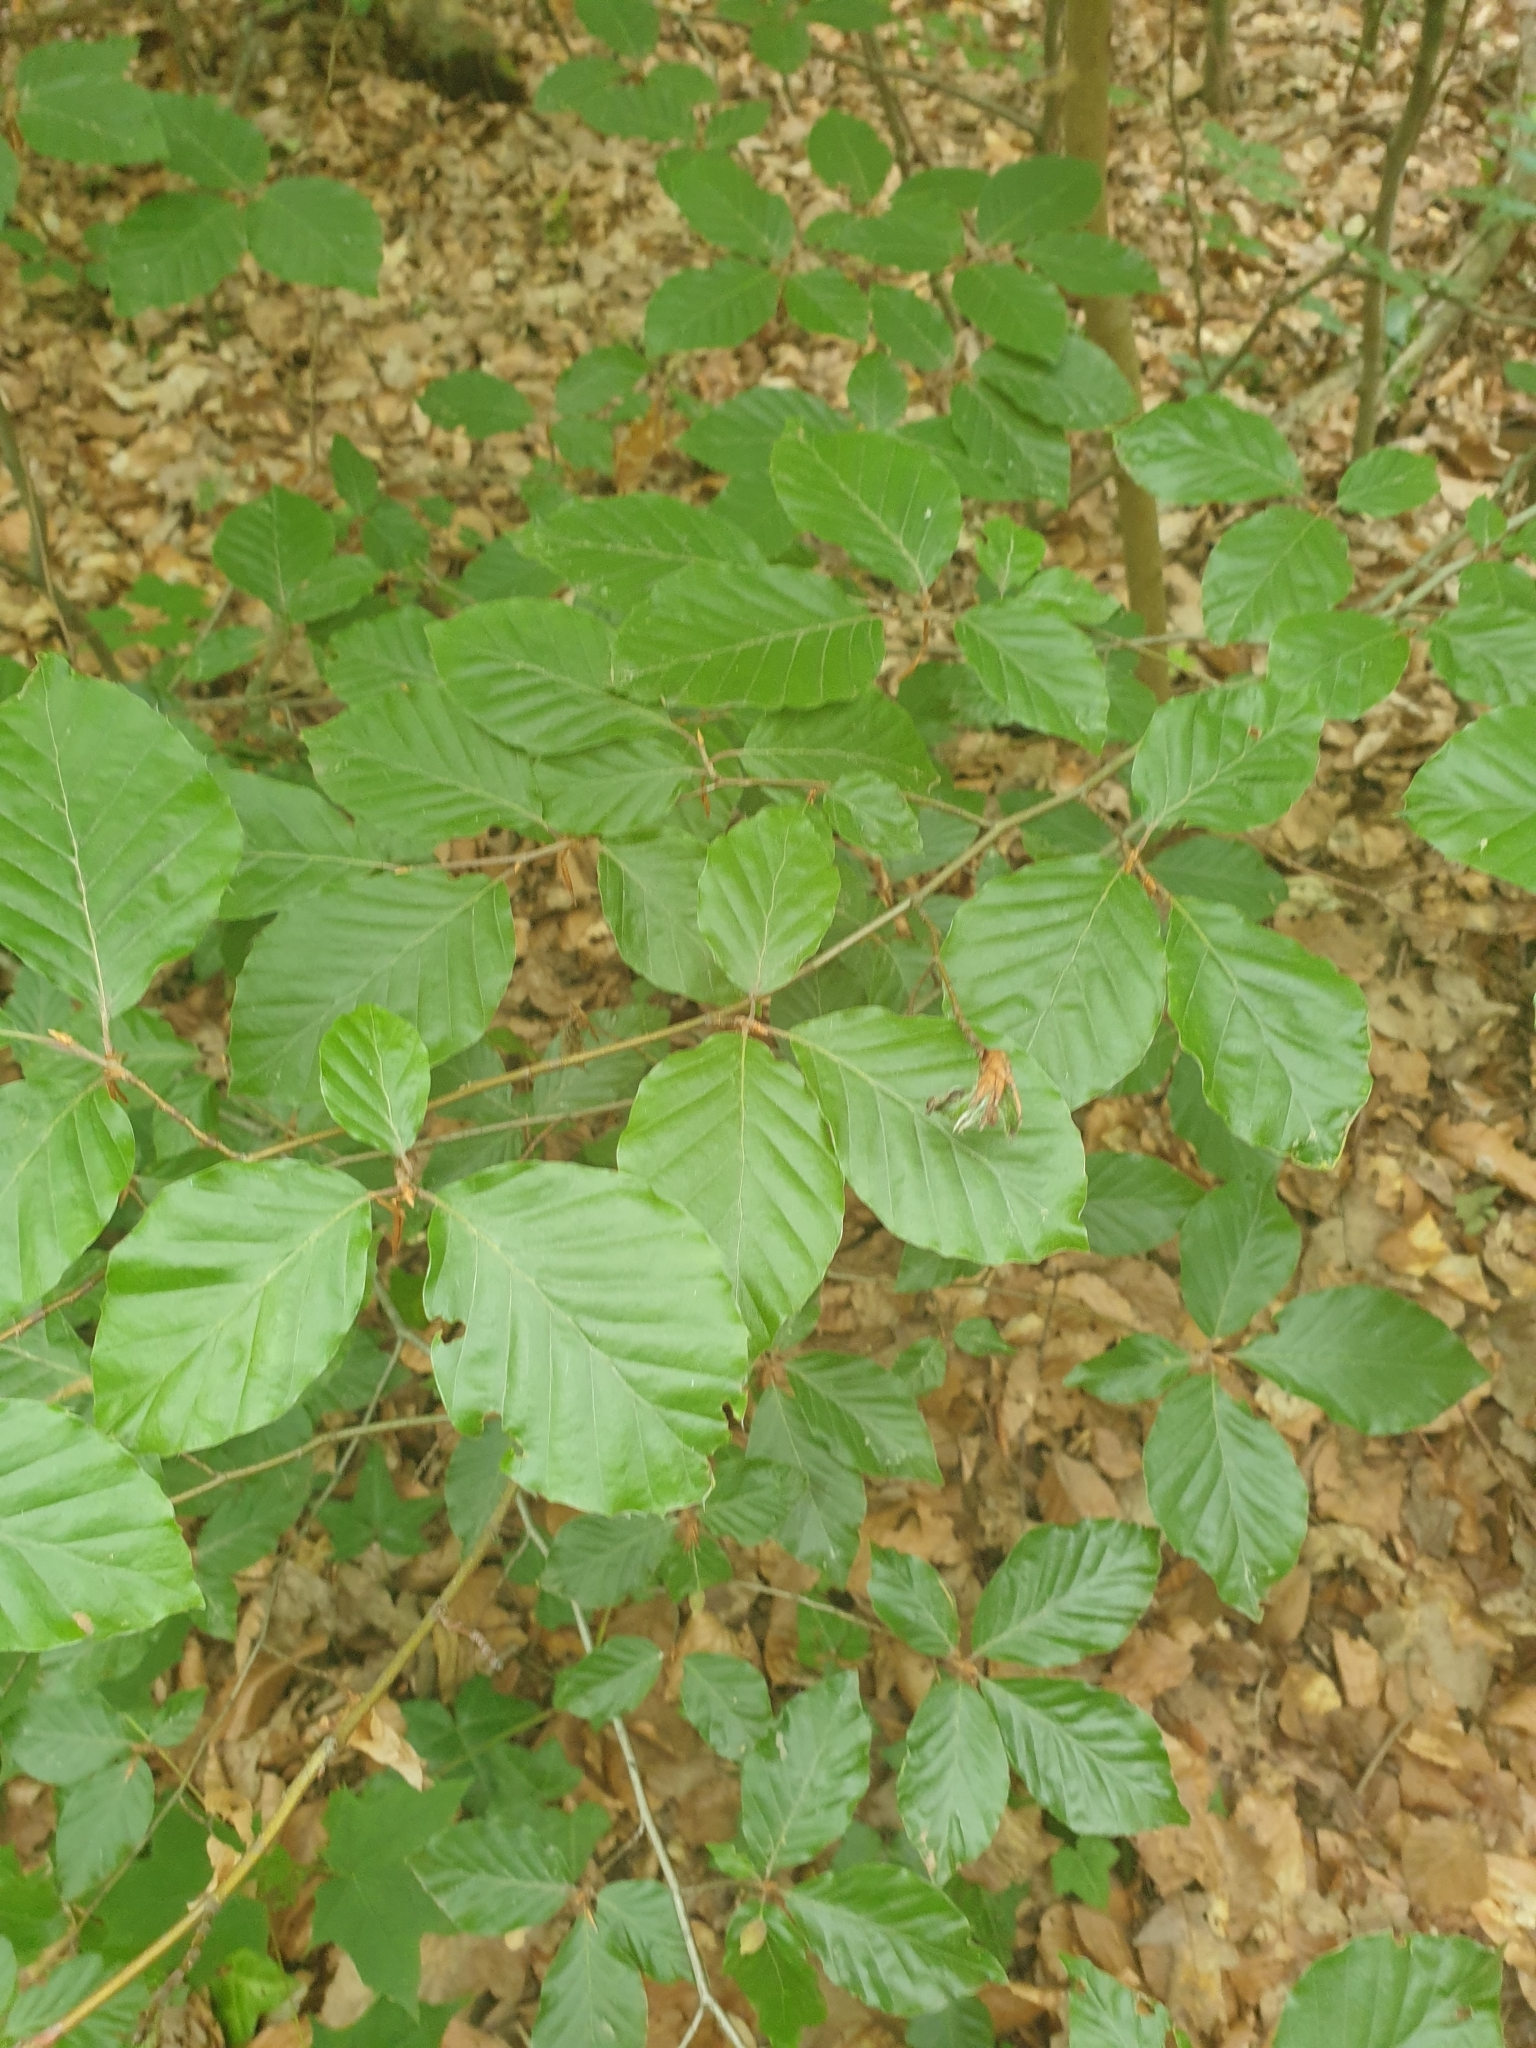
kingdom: Plantae
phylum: Tracheophyta
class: Magnoliopsida
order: Fagales
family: Fagaceae
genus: Fagus
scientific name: Fagus sylvatica
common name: Beech
